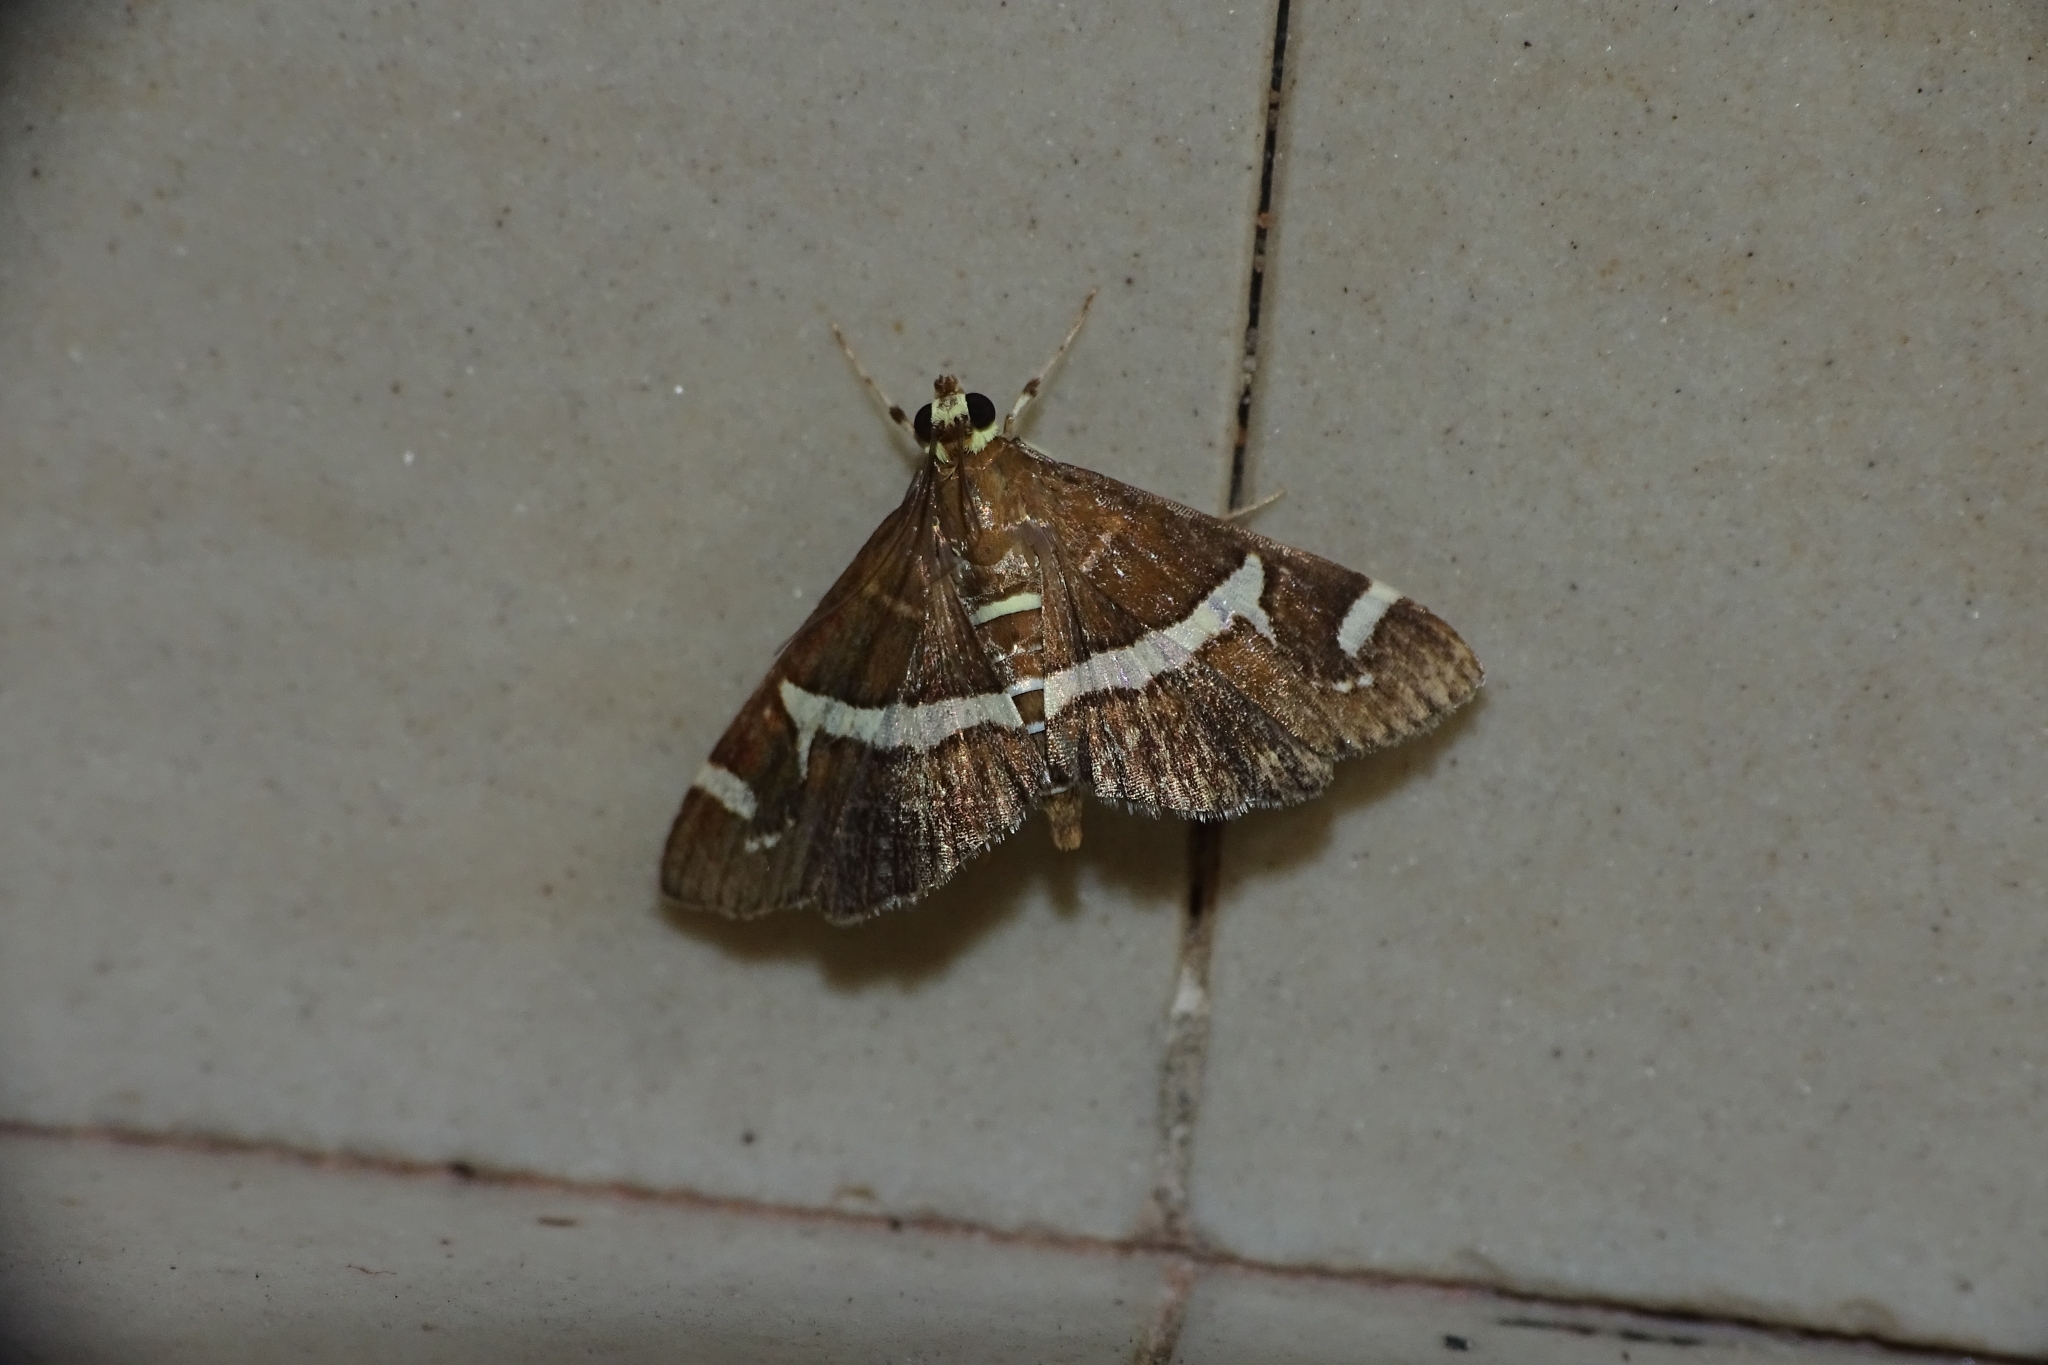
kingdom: Animalia
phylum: Arthropoda
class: Insecta
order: Lepidoptera
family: Crambidae
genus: Spoladea
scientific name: Spoladea recurvalis
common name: Beet webworm moth
